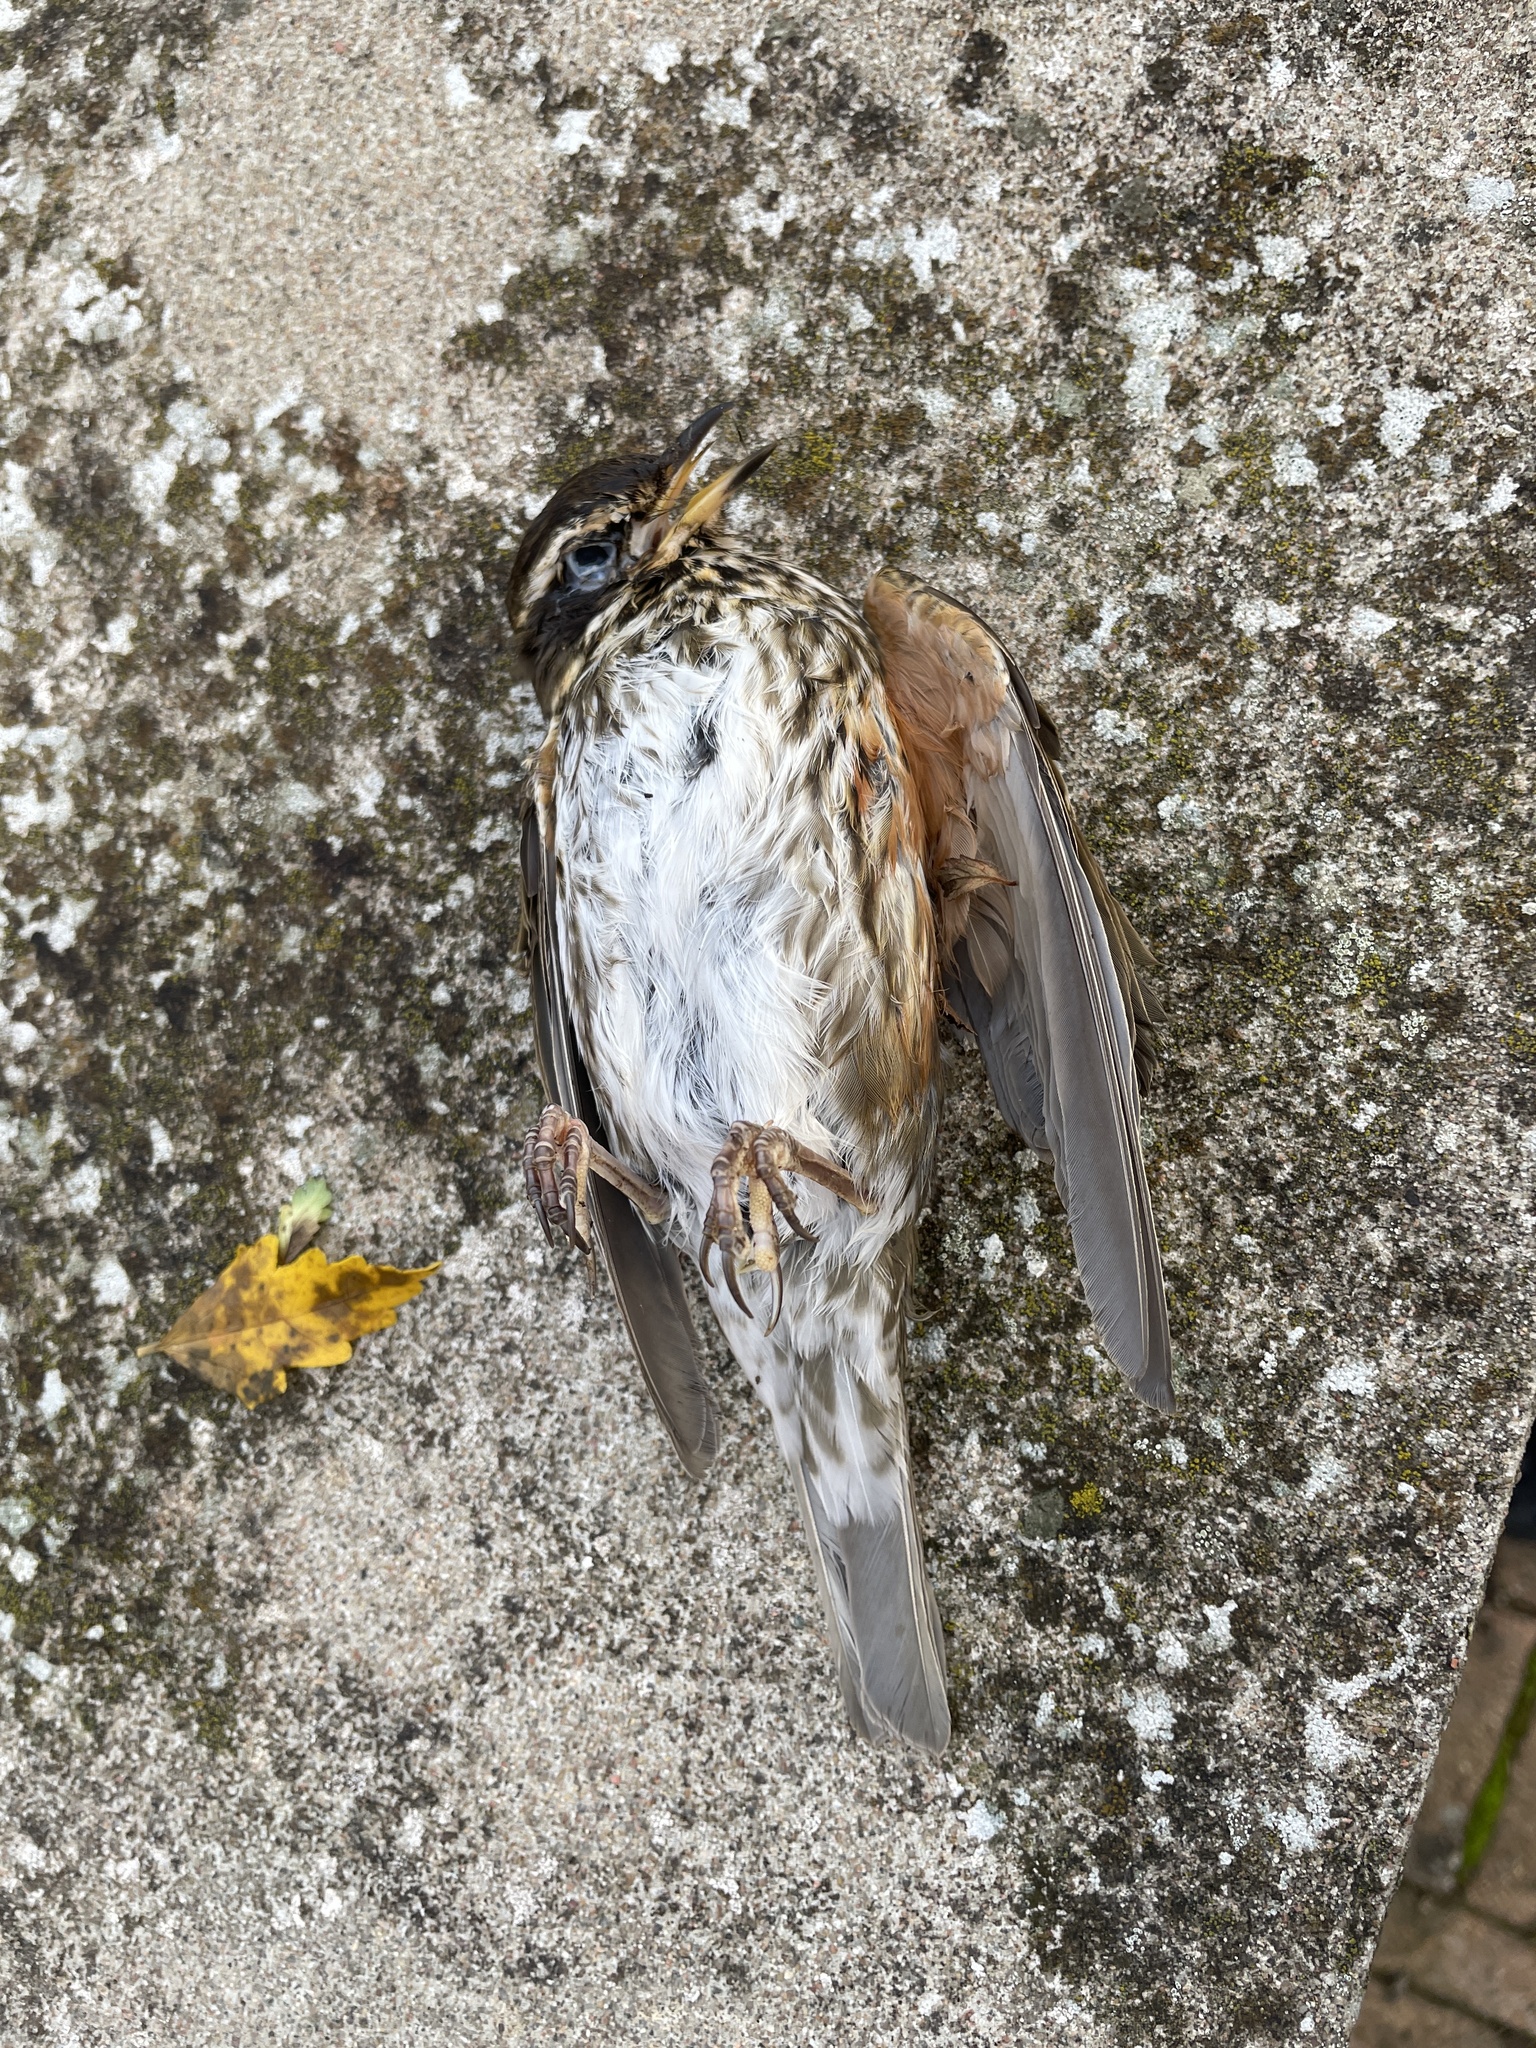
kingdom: Animalia
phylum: Chordata
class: Aves
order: Passeriformes
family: Turdidae
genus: Turdus
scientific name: Turdus iliacus
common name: Redwing
